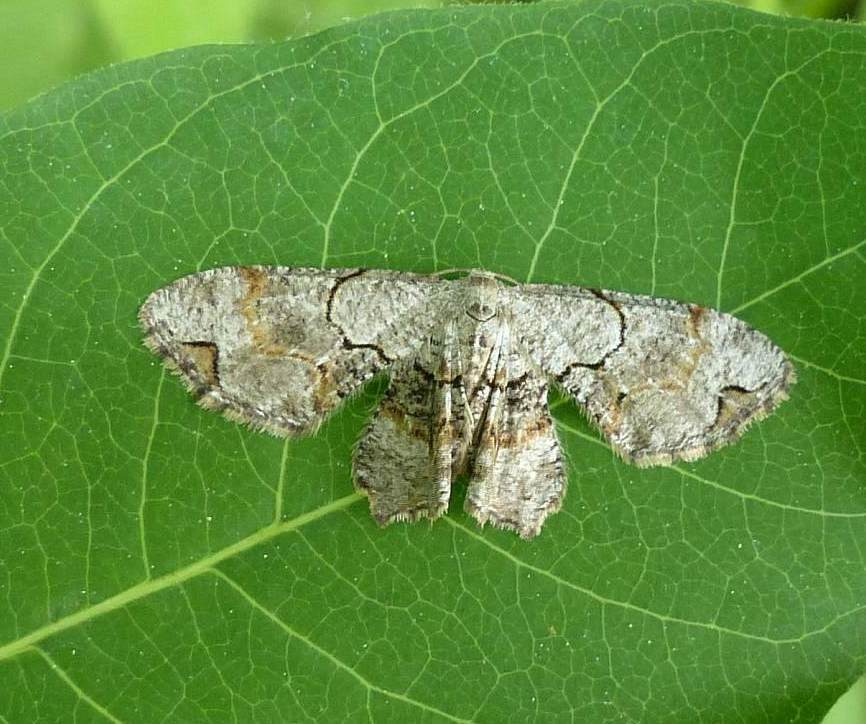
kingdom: Animalia
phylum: Arthropoda
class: Insecta
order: Lepidoptera
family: Uraniidae
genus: Epiplema
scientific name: Epiplema Callizzia amorata
